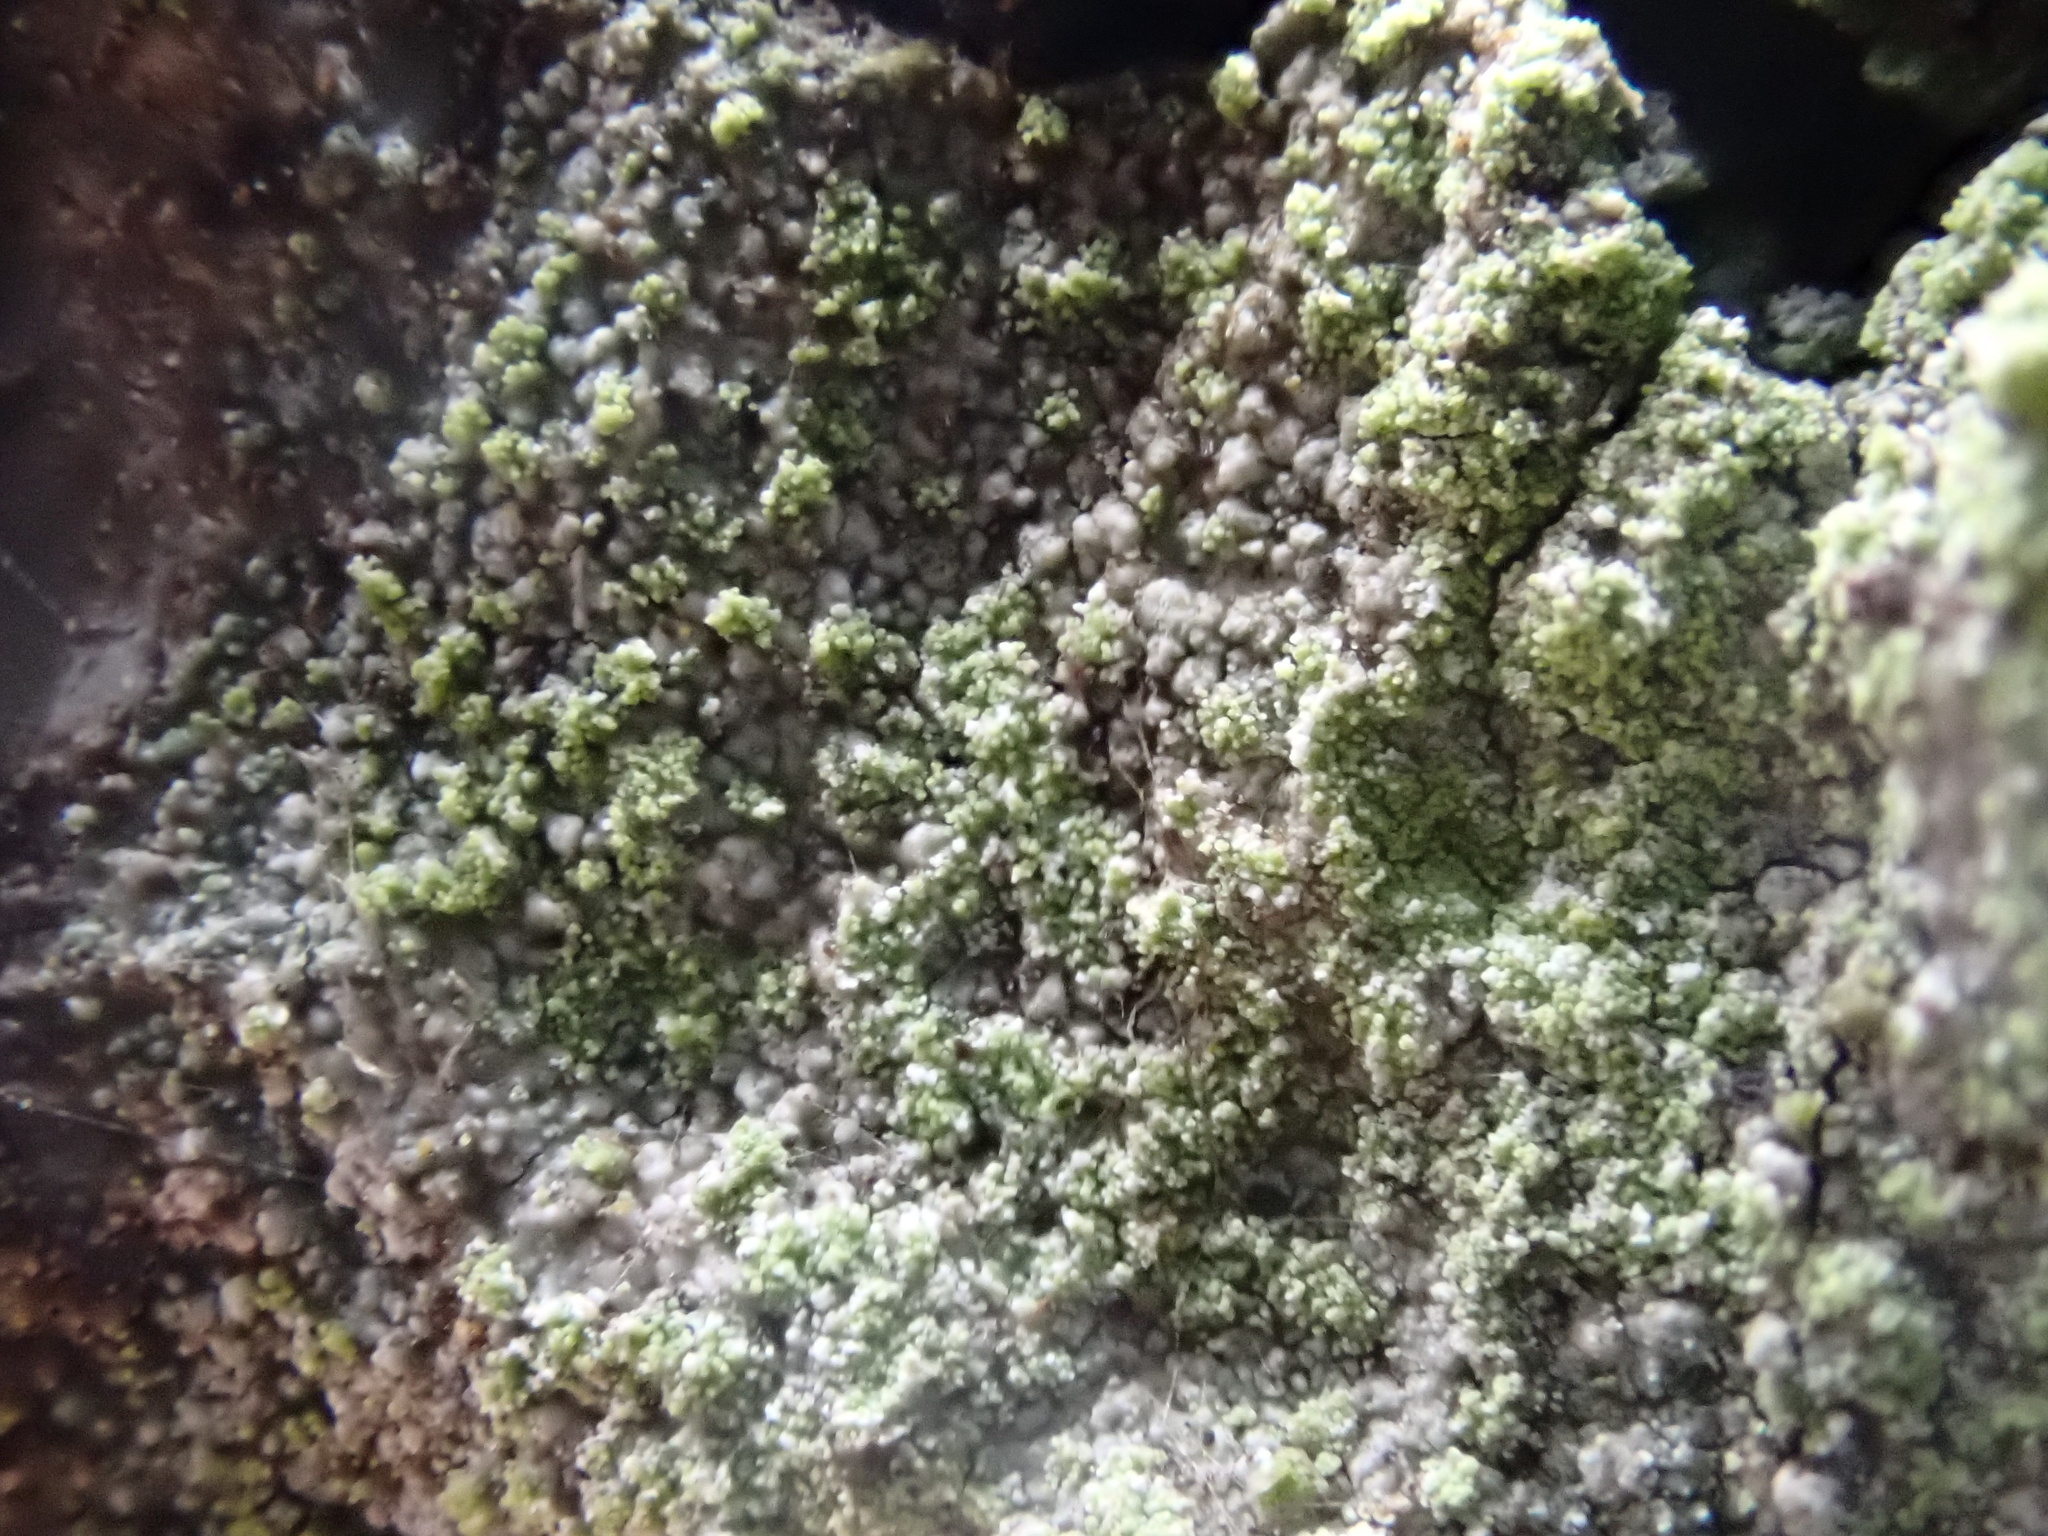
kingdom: Fungi
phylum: Ascomycota
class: Lecanoromycetes
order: Lecanorales
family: Lecanoraceae
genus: Lecanora
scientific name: Lecanora barkmaniana
